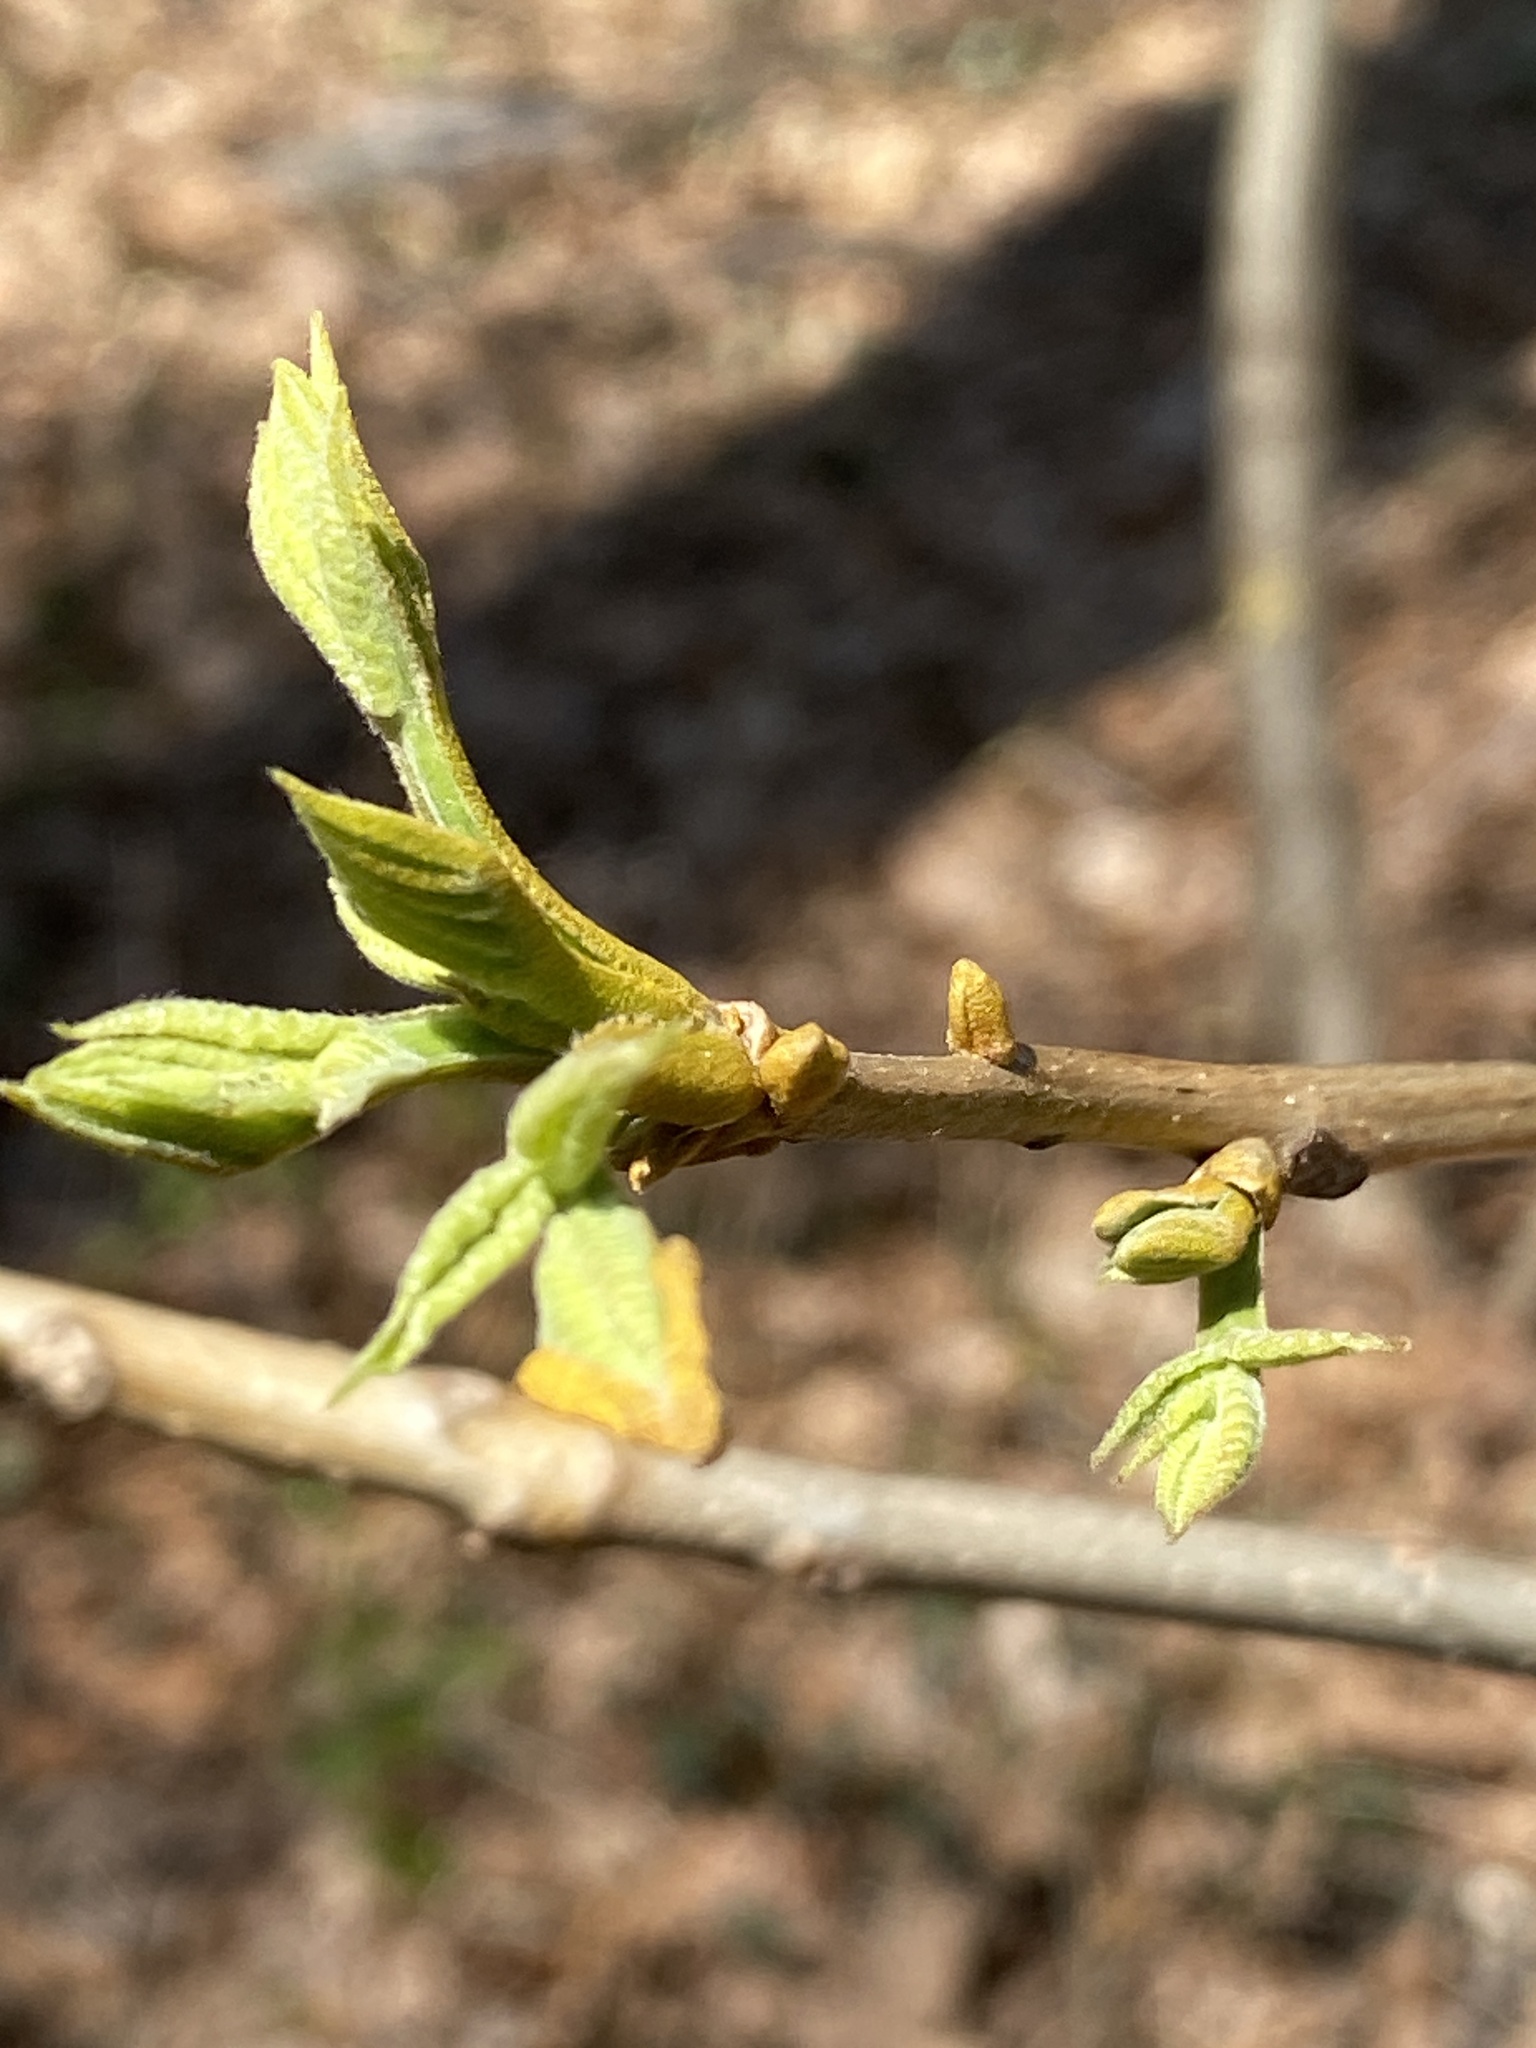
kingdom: Plantae
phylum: Tracheophyta
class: Magnoliopsida
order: Fagales
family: Juglandaceae
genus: Carya
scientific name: Carya cordiformis
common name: Bitternut hickory
